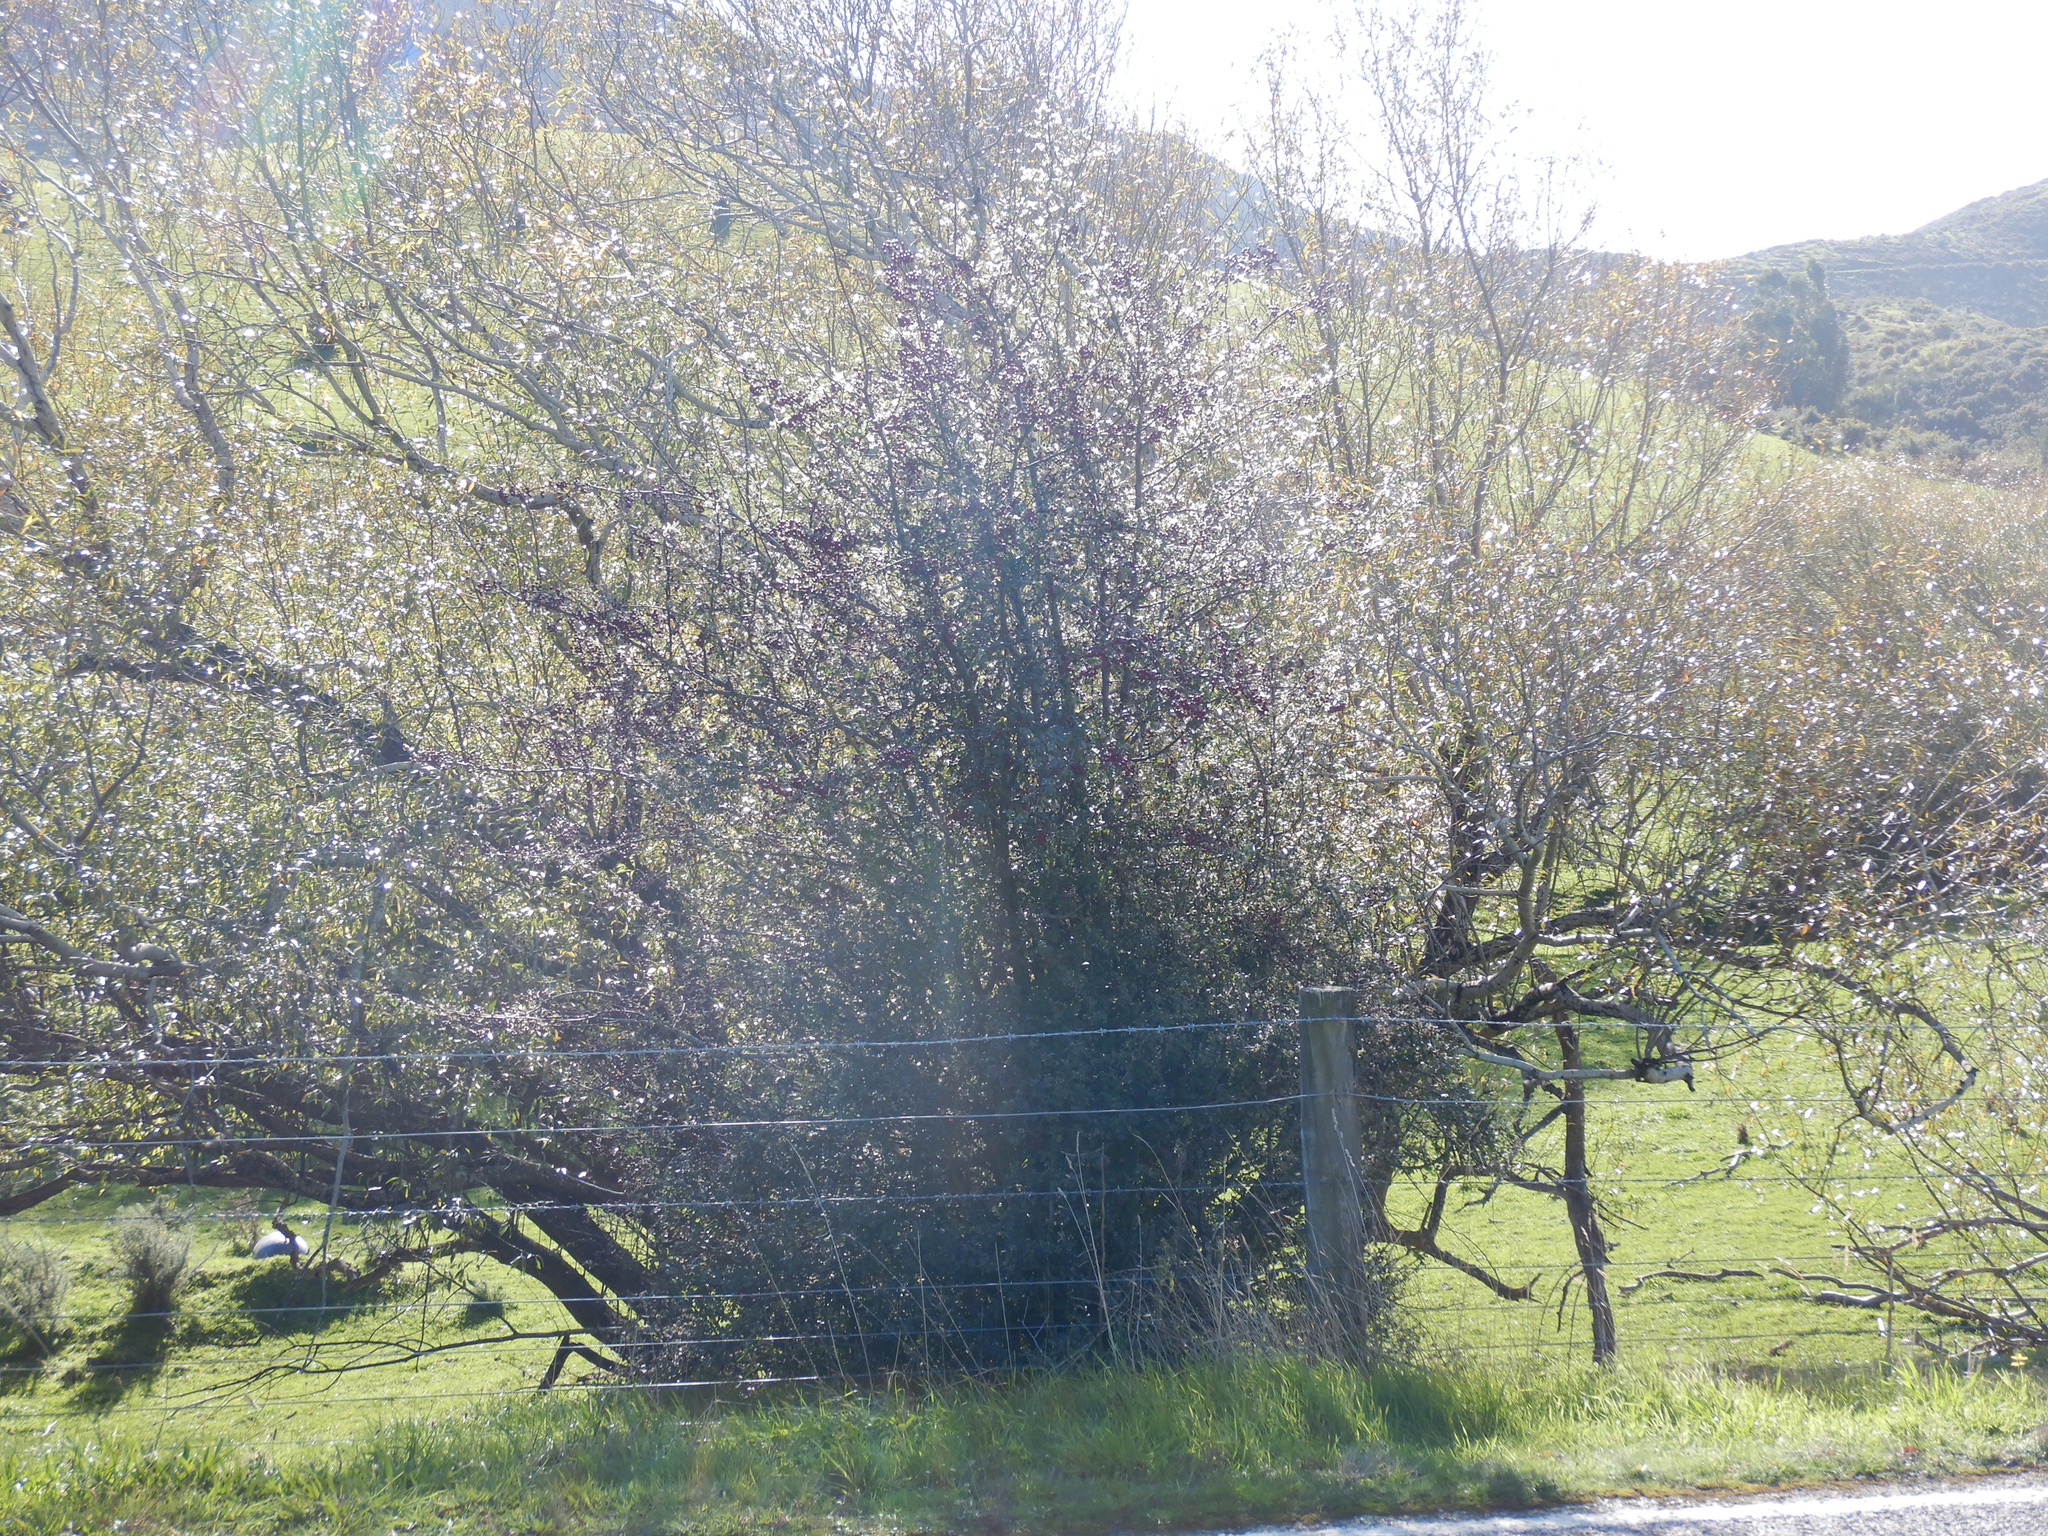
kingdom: Plantae
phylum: Tracheophyta
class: Magnoliopsida
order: Rosales
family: Rosaceae
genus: Crataegus
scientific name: Crataegus monogyna
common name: Hawthorn
